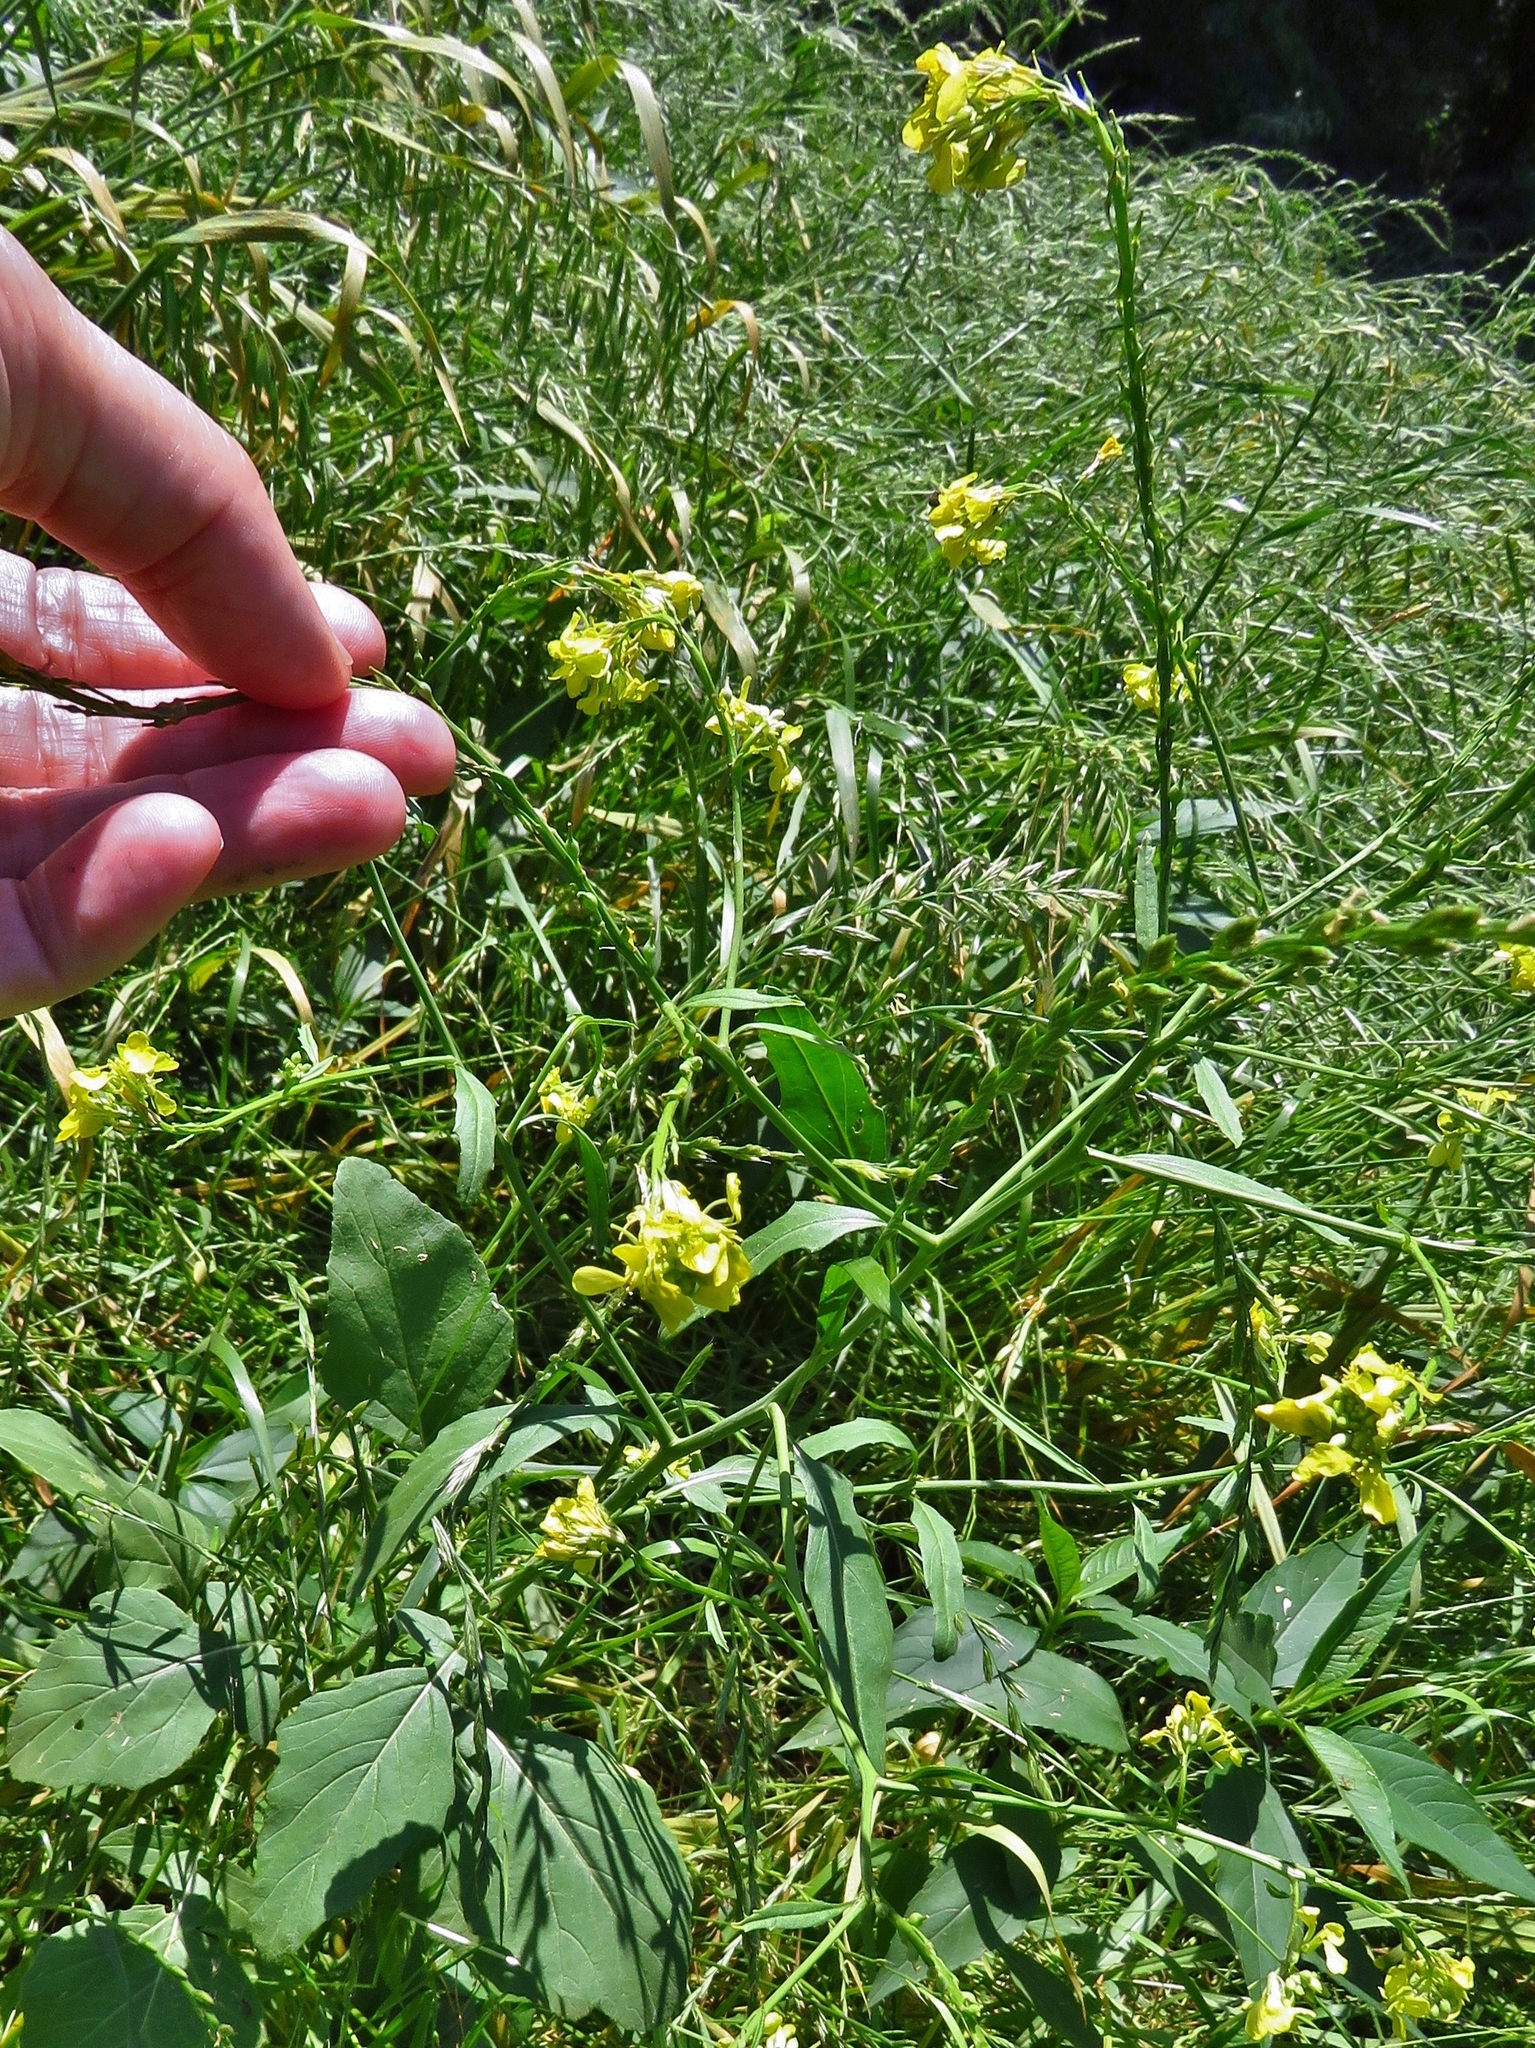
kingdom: Plantae
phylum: Tracheophyta
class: Magnoliopsida
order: Brassicales
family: Brassicaceae
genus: Rapistrum
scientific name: Rapistrum rugosum
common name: Annual bastardcabbage
